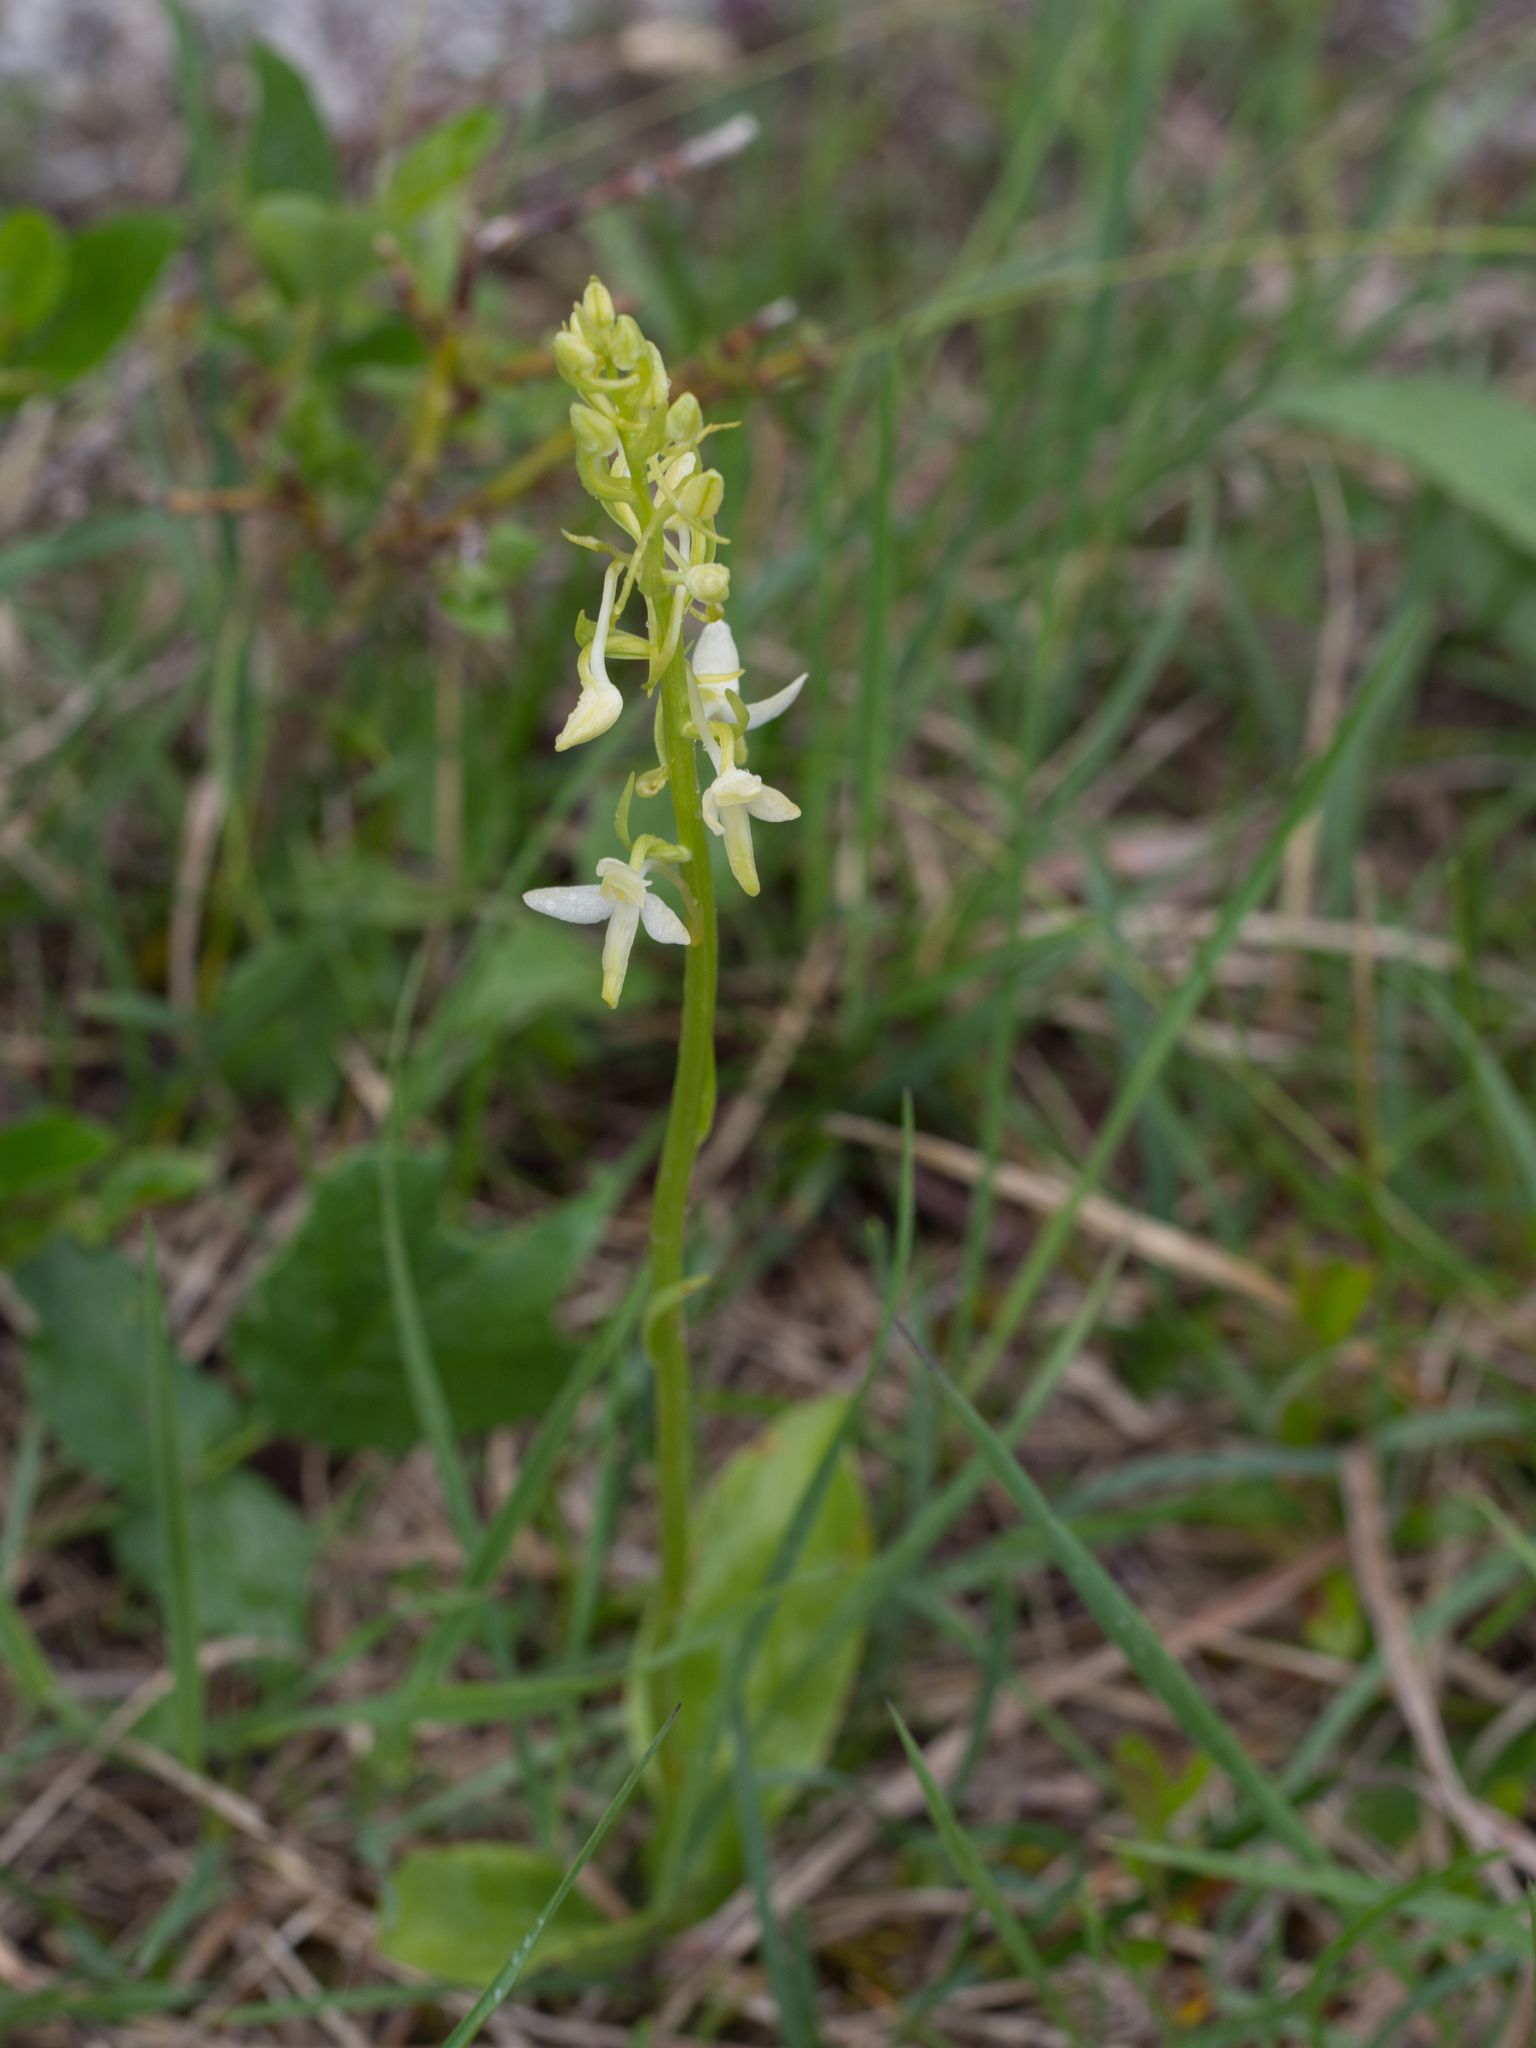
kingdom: Plantae
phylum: Tracheophyta
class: Liliopsida
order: Asparagales
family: Orchidaceae
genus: Platanthera
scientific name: Platanthera bifolia
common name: Lesser butterfly-orchid
